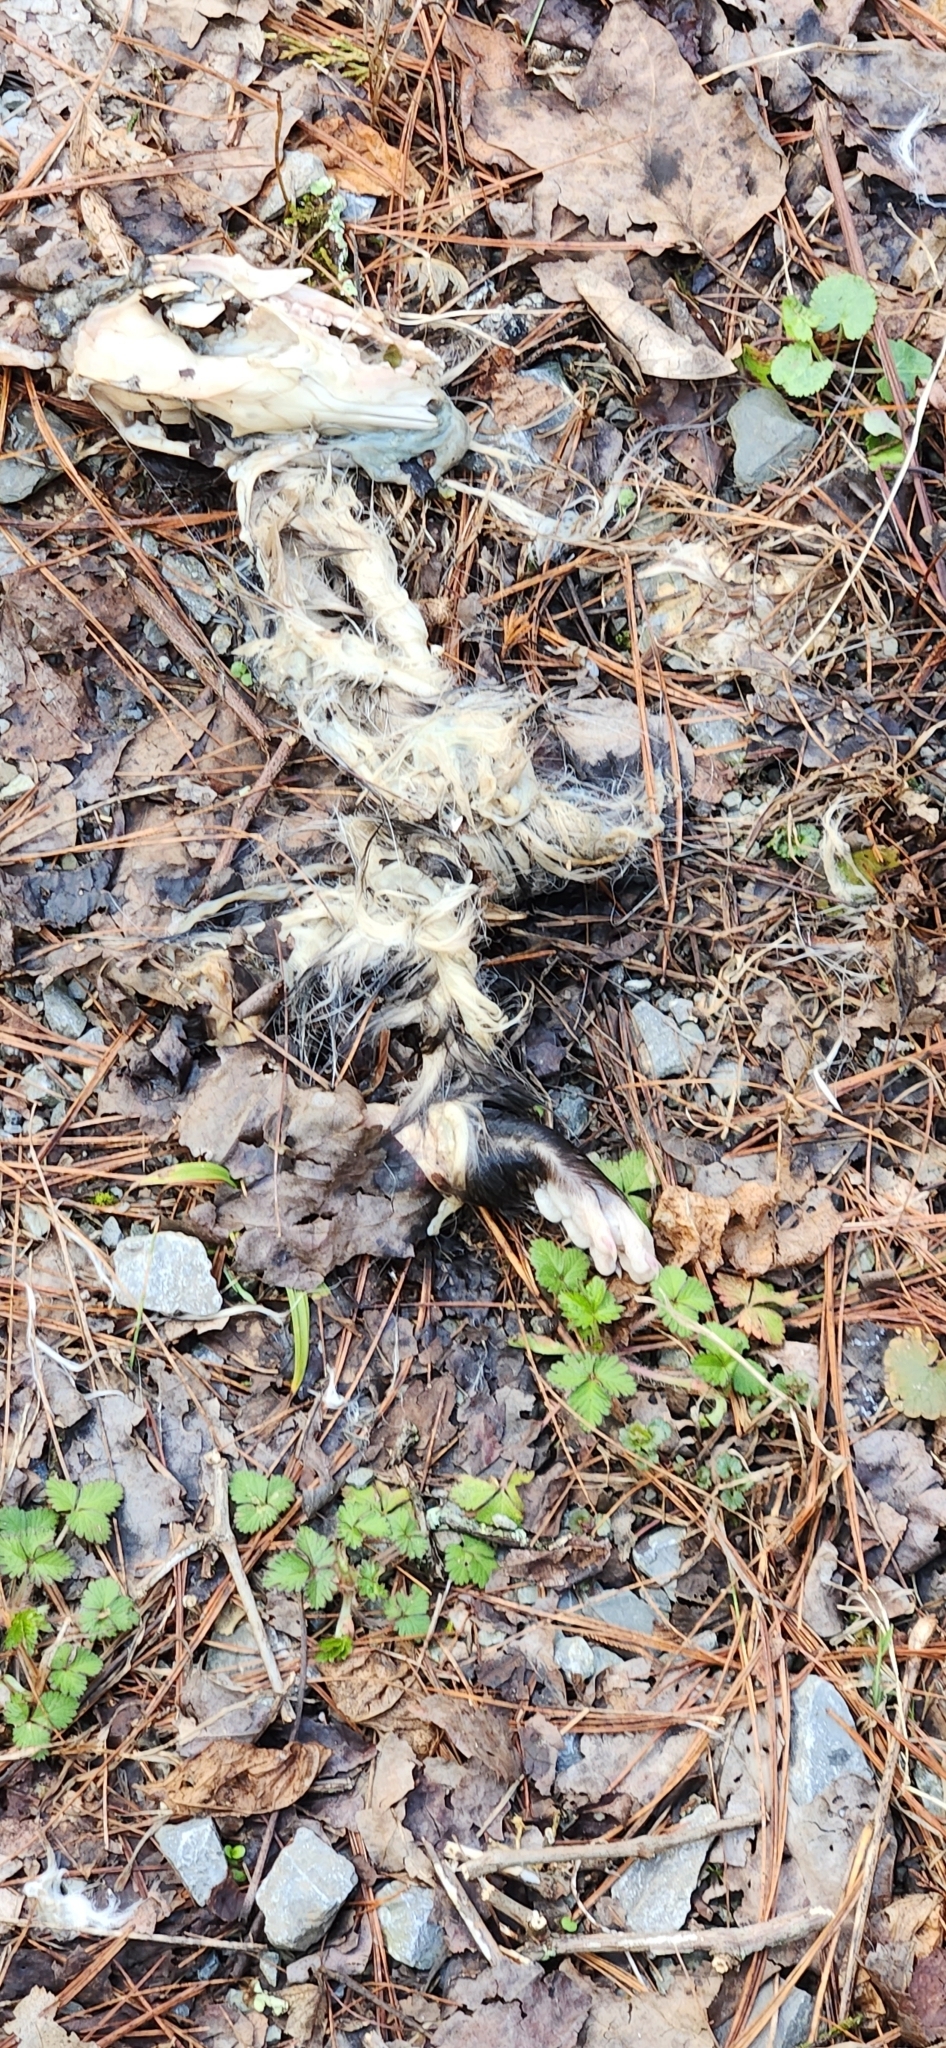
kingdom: Animalia
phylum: Chordata
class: Mammalia
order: Didelphimorphia
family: Didelphidae
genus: Didelphis
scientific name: Didelphis virginiana
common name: Virginia opossum
